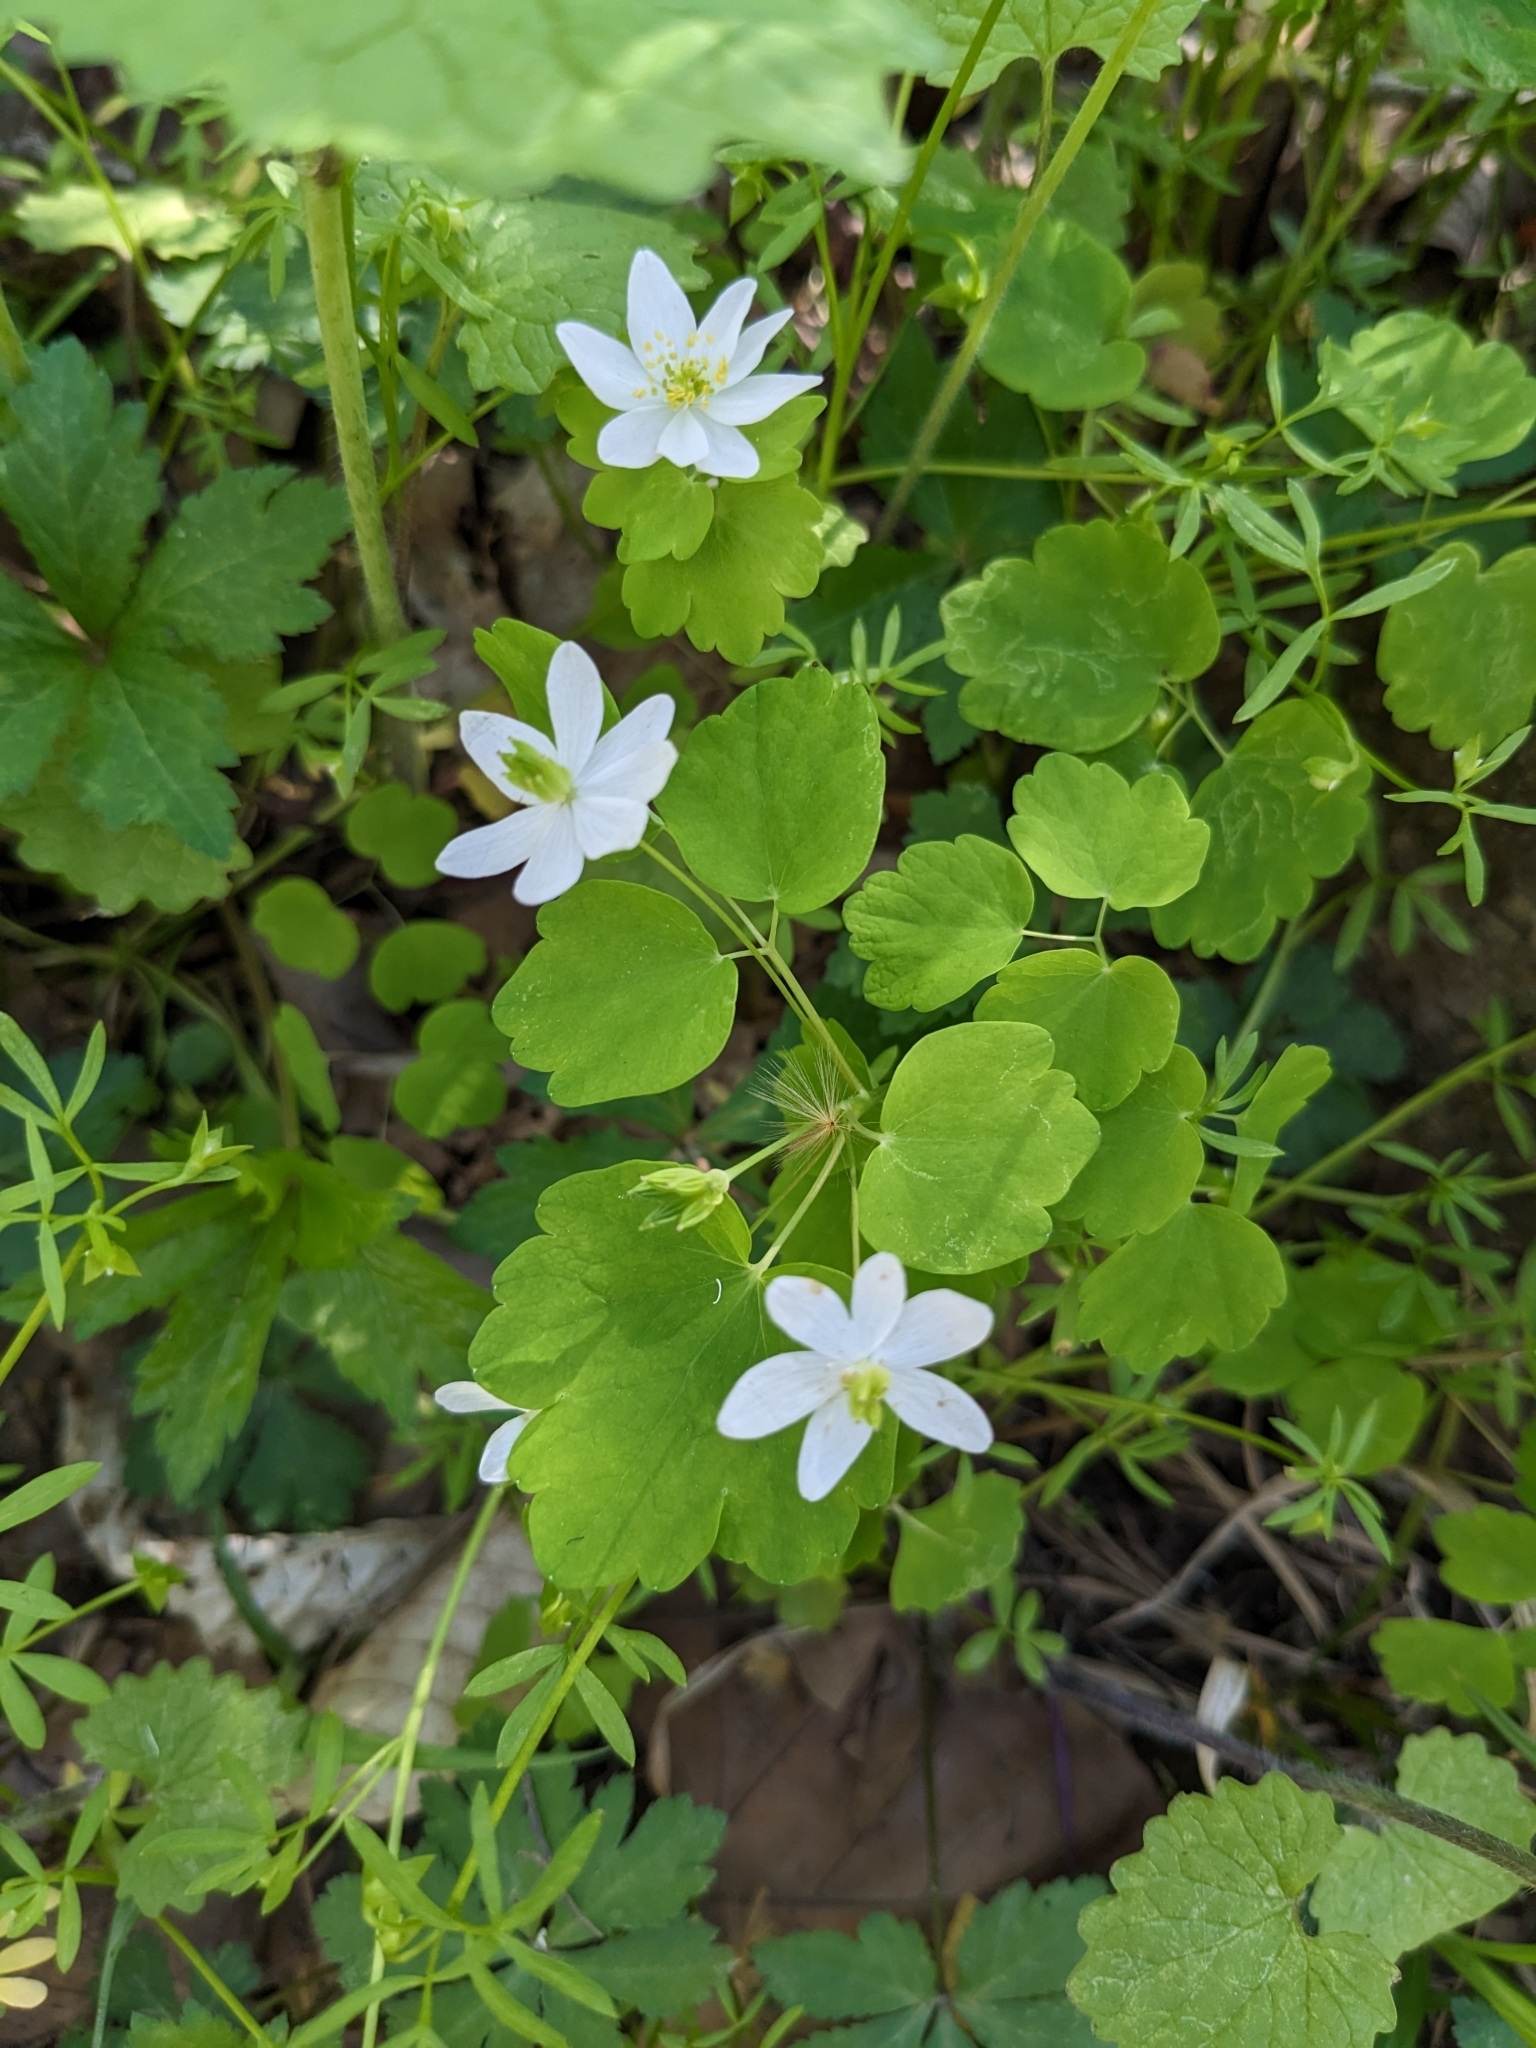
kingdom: Plantae
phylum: Tracheophyta
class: Magnoliopsida
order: Ranunculales
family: Ranunculaceae
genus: Thalictrum
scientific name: Thalictrum thalictroides
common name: Rue-anemone
